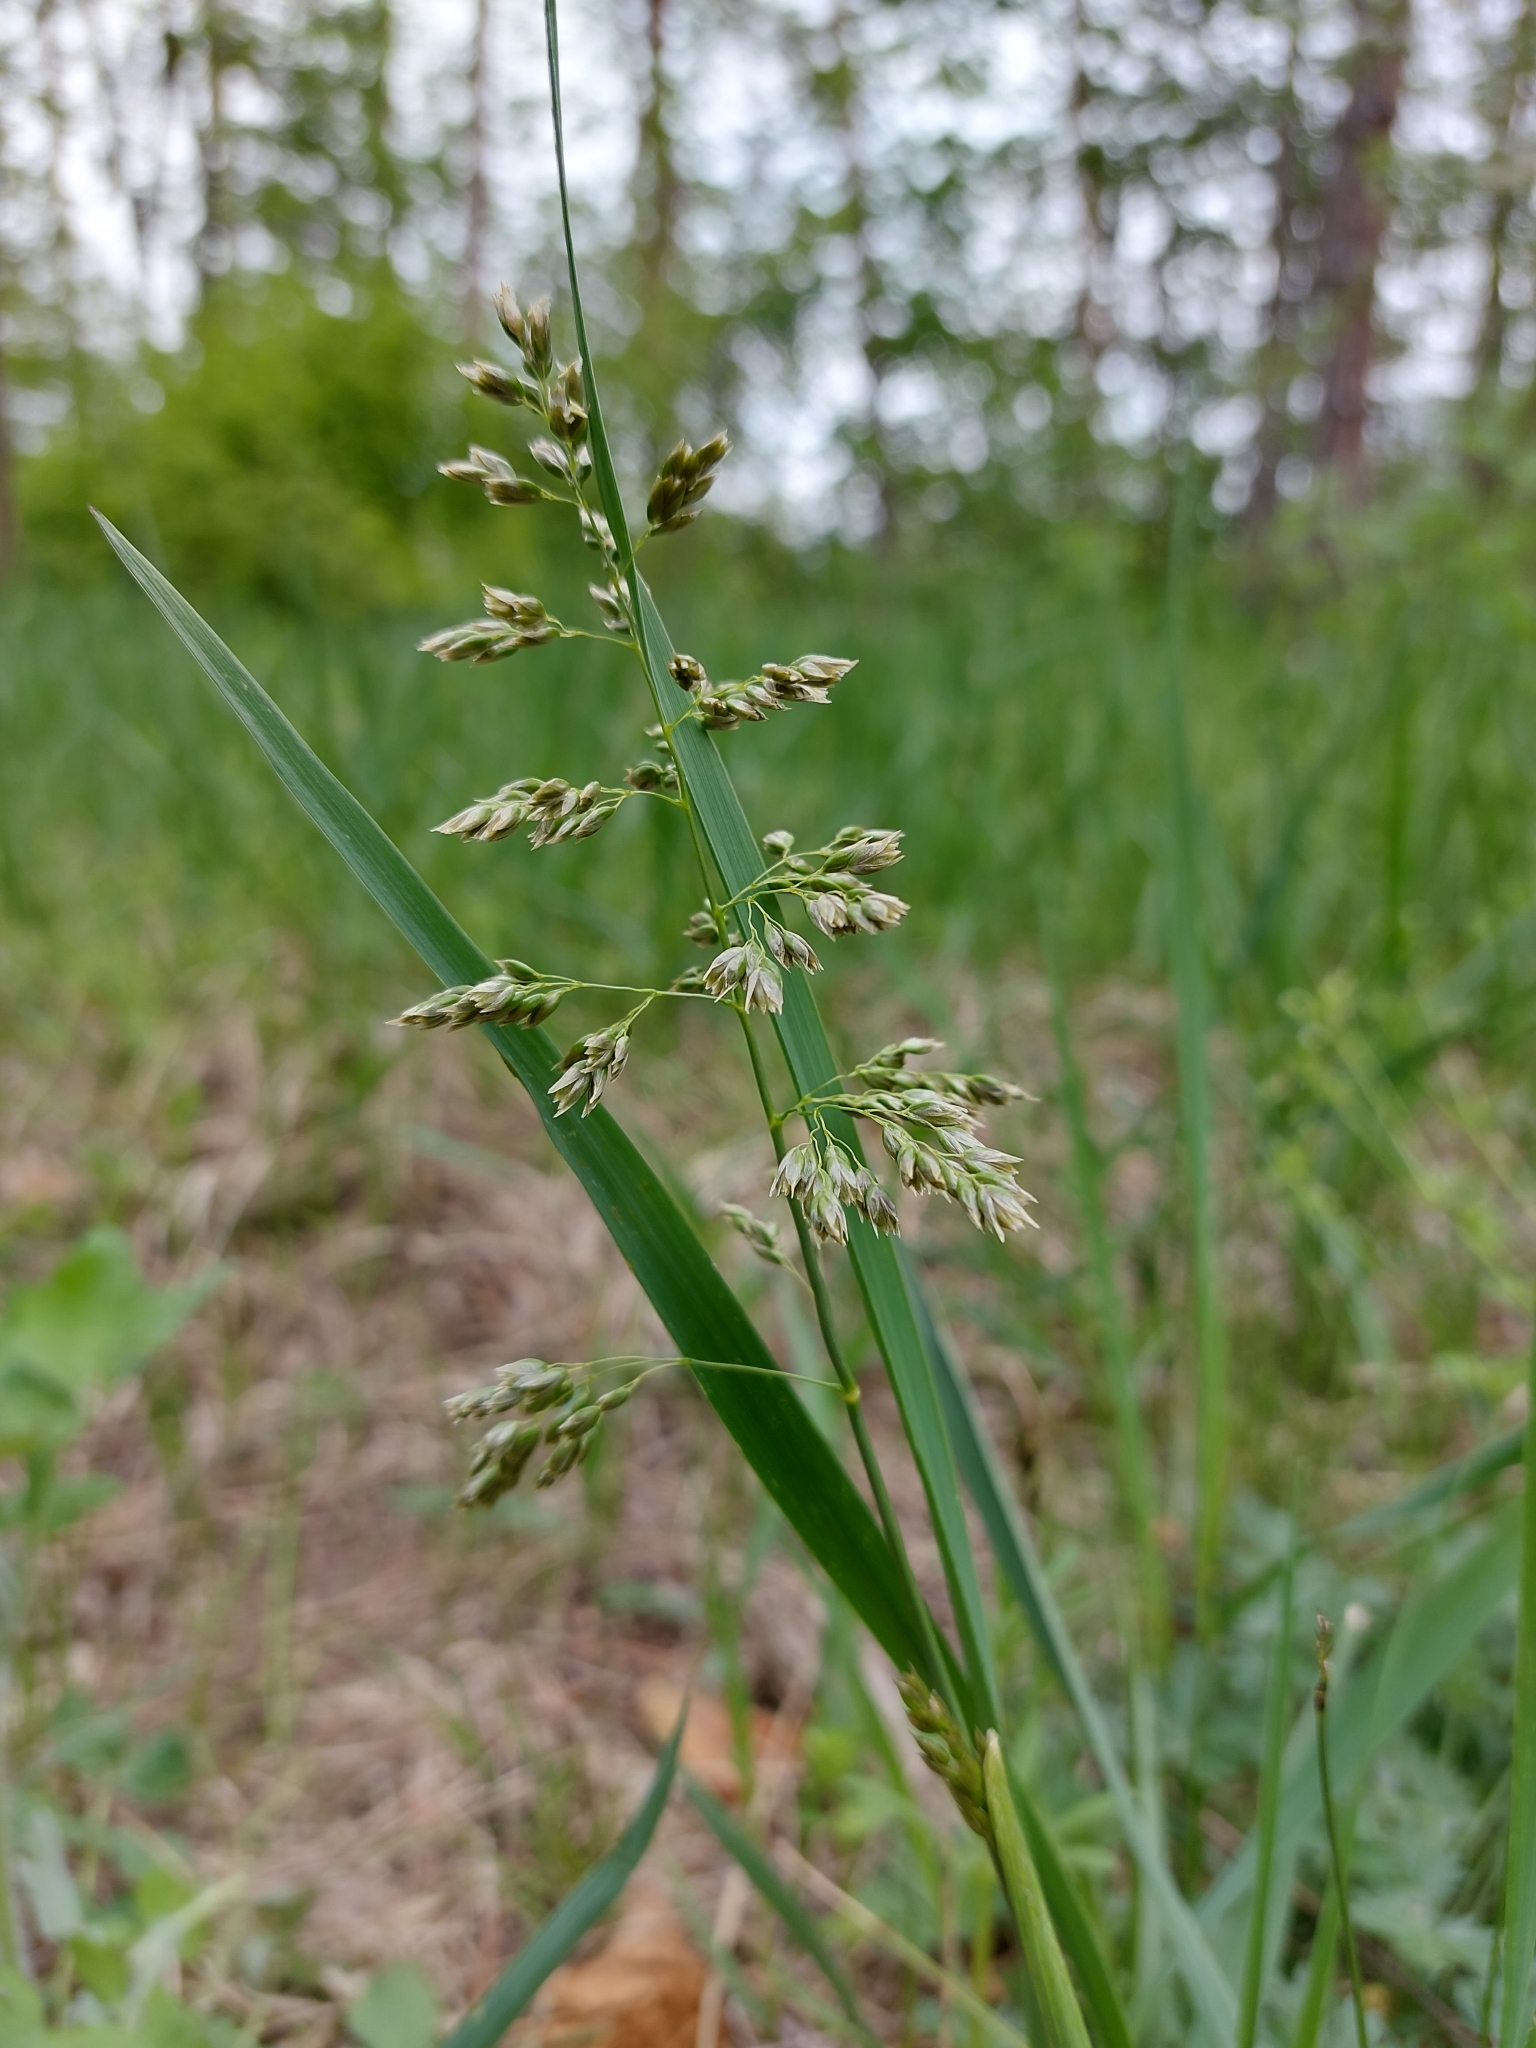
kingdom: Plantae
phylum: Tracheophyta
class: Liliopsida
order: Poales
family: Poaceae
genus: Anthoxanthum
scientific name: Anthoxanthum repens
